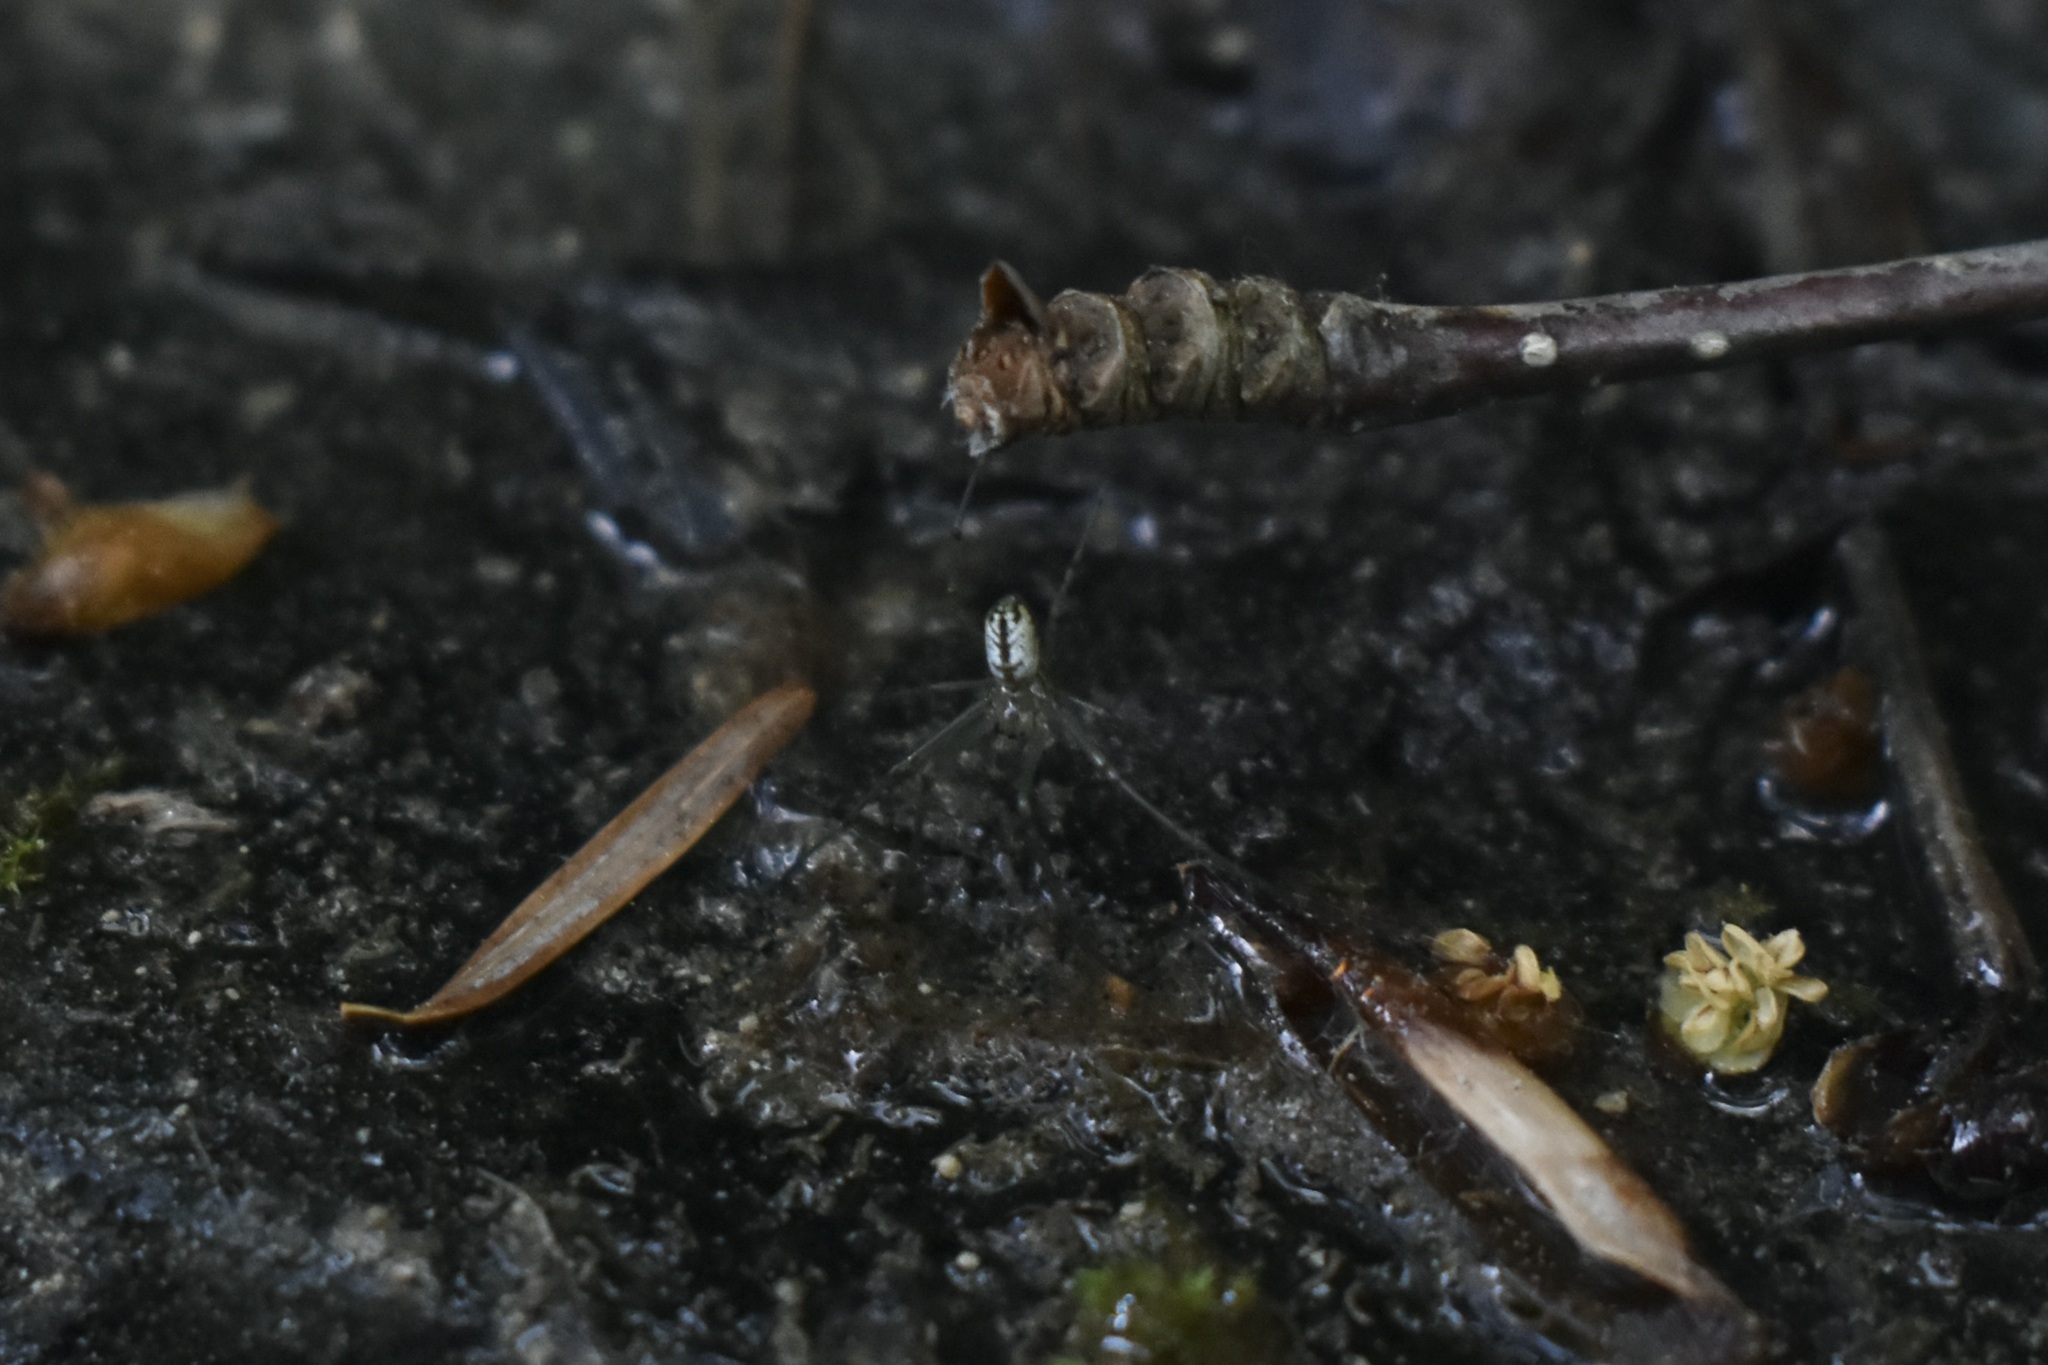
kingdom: Animalia
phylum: Arthropoda
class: Arachnida
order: Araneae
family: Tetragnathidae
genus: Leucauge
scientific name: Leucauge venusta
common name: Longjawed orb weavers
